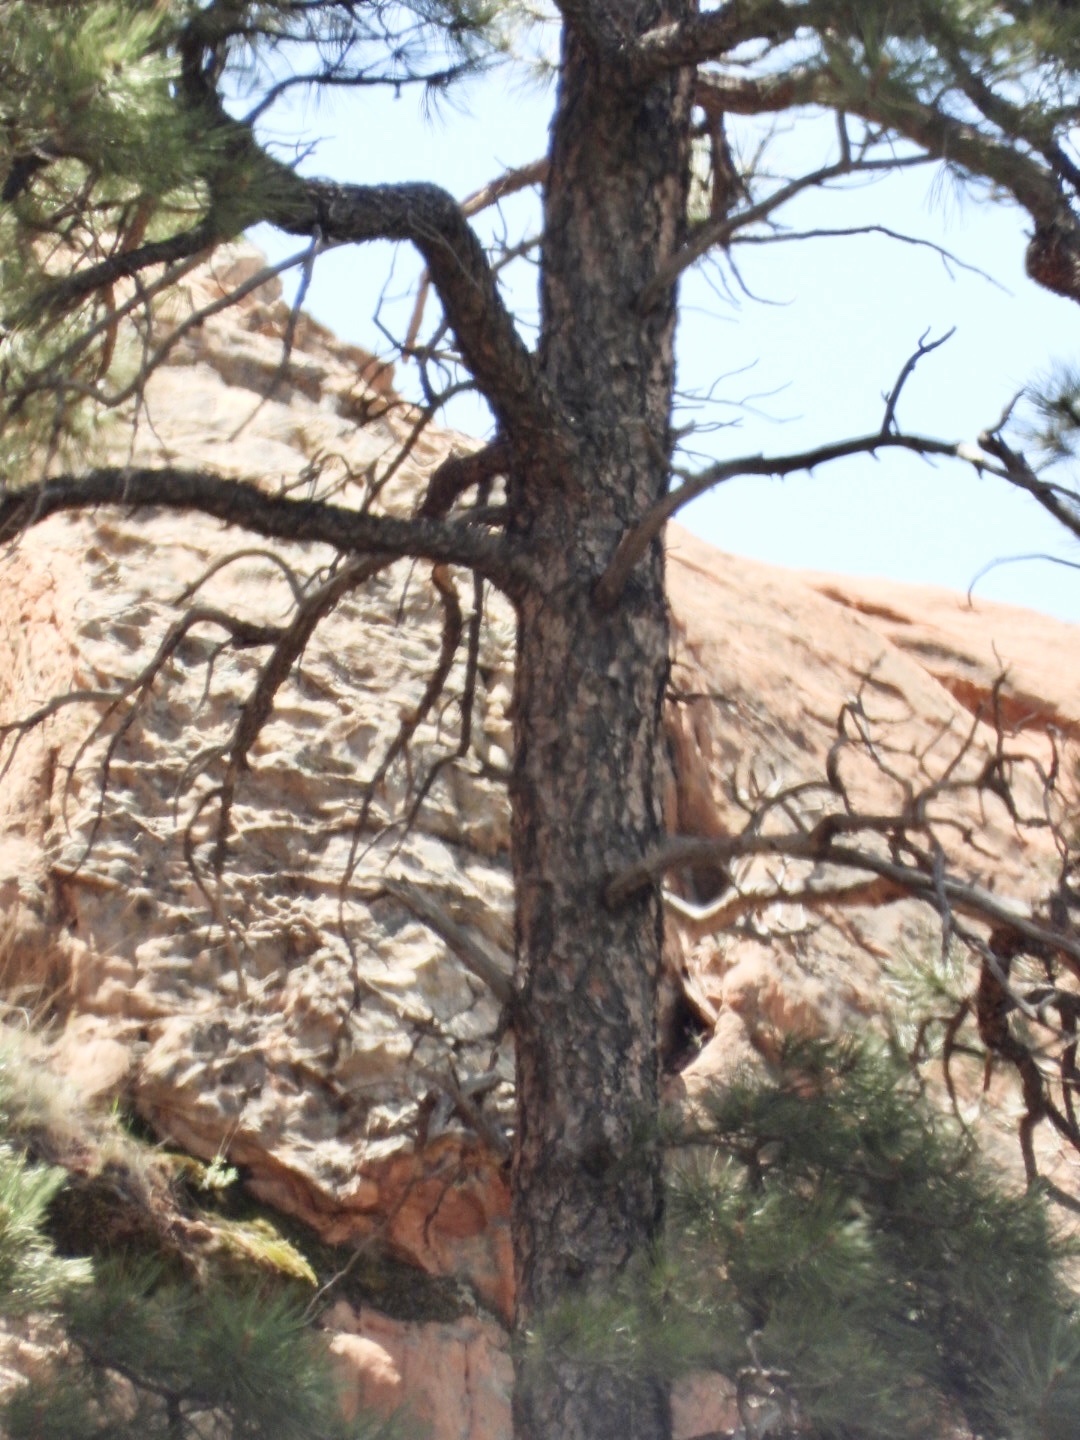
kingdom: Plantae
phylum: Tracheophyta
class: Pinopsida
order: Pinales
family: Pinaceae
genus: Pinus
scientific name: Pinus ponderosa
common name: Western yellow-pine
